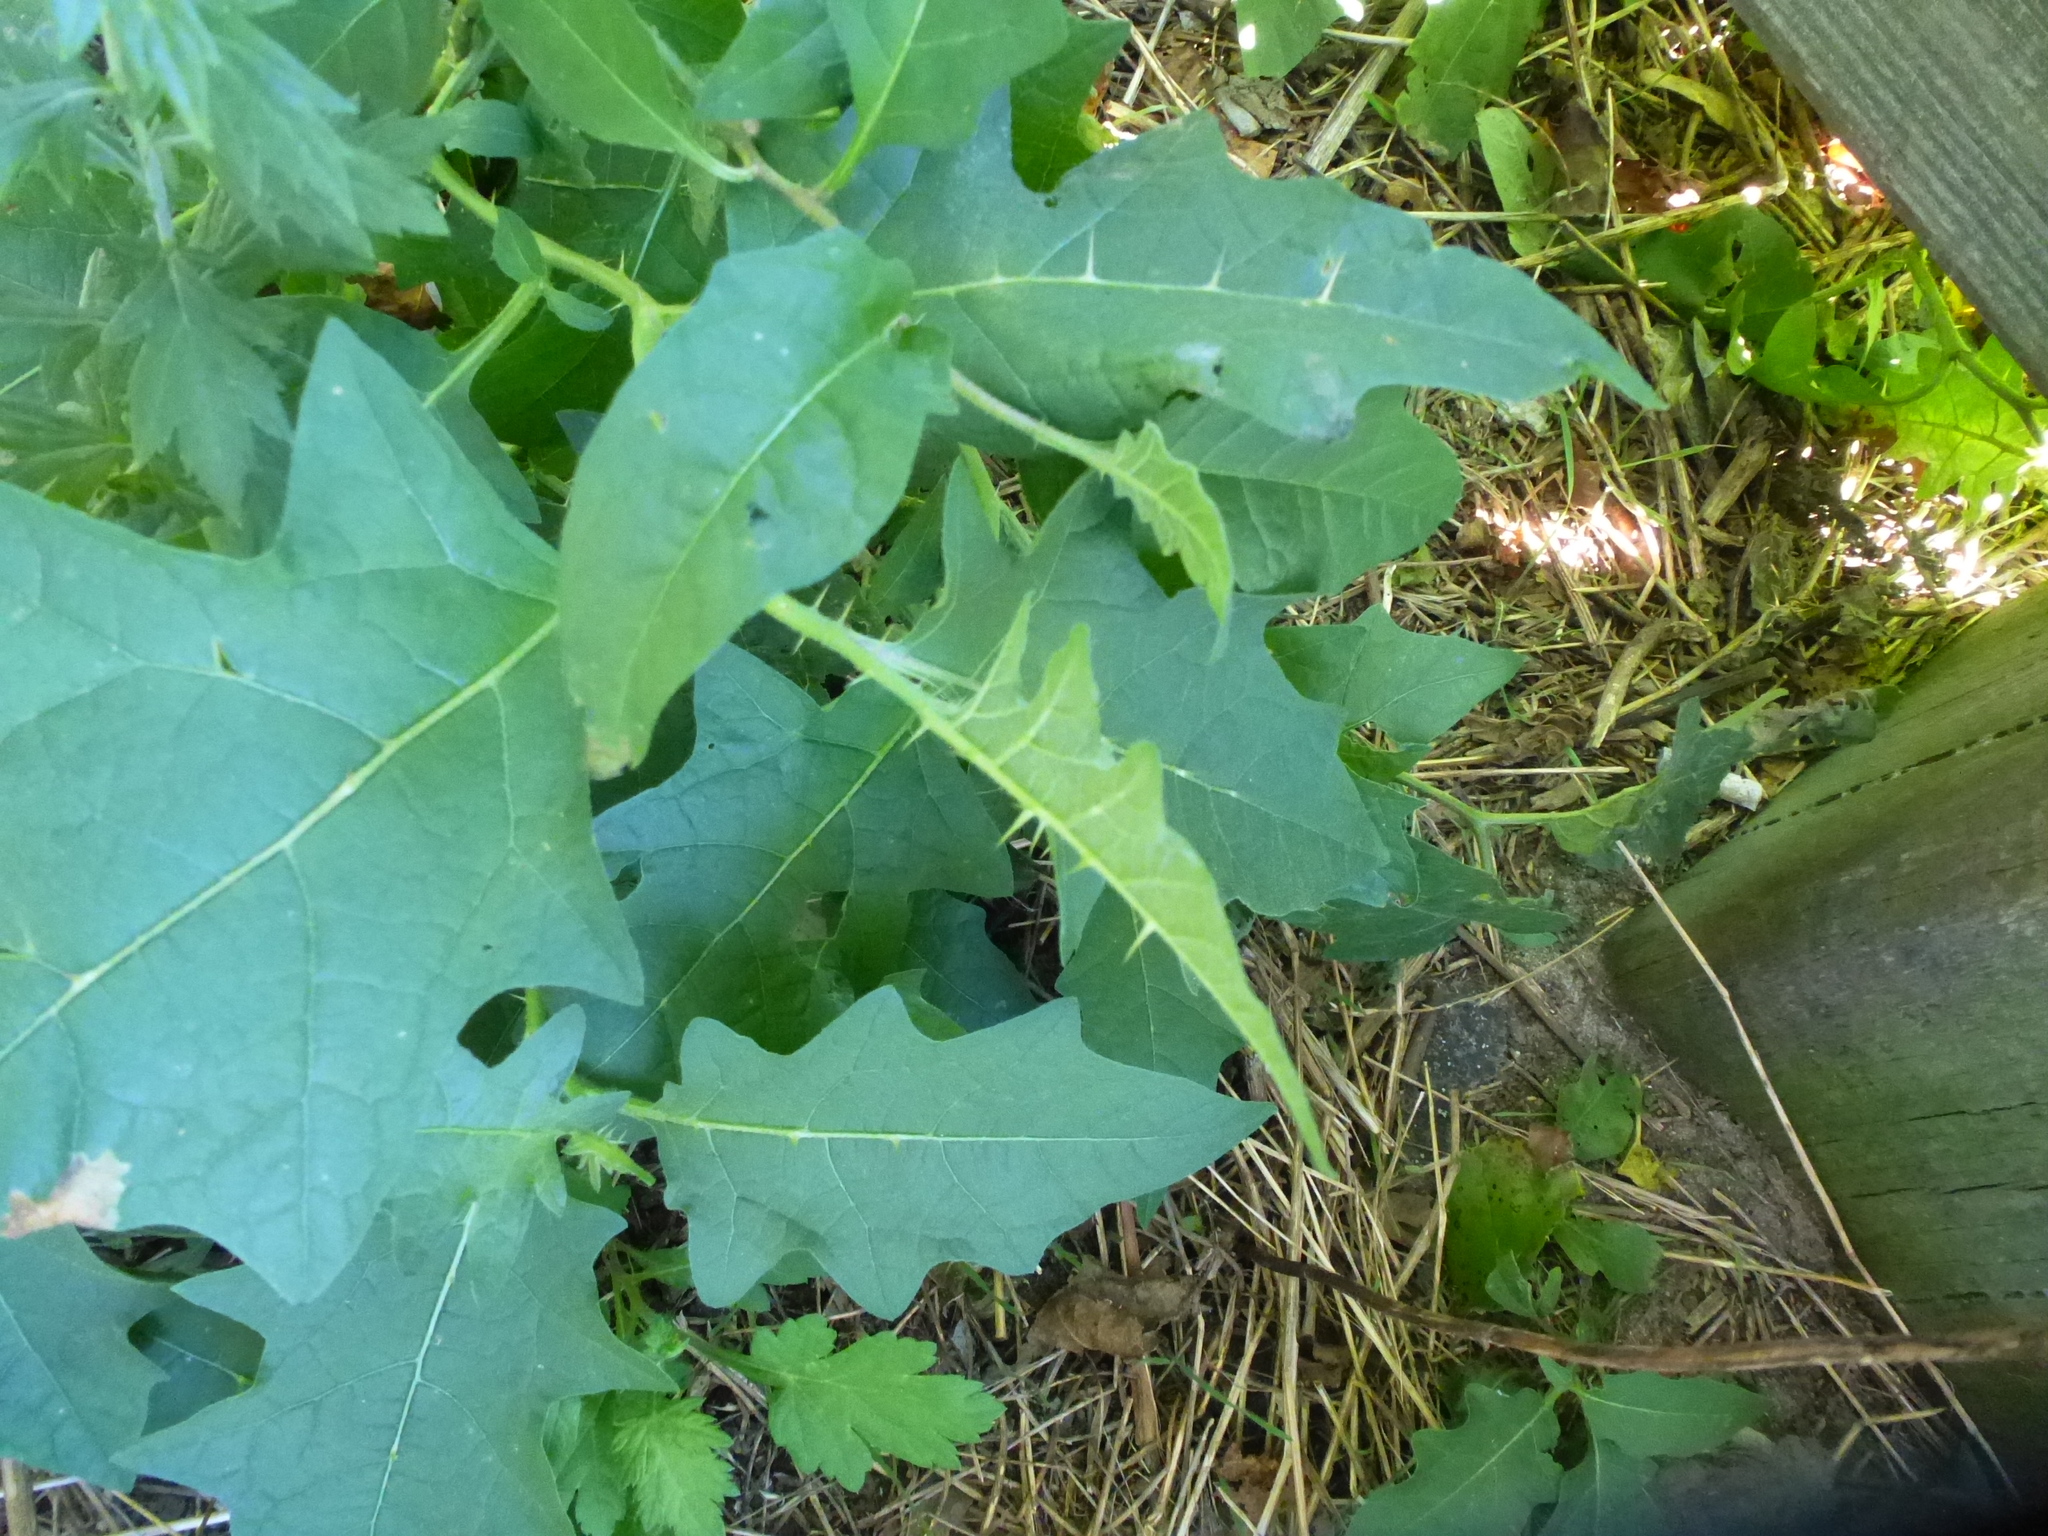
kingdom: Plantae
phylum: Tracheophyta
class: Magnoliopsida
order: Solanales
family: Solanaceae
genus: Solanum
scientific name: Solanum carolinense
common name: Horse-nettle
